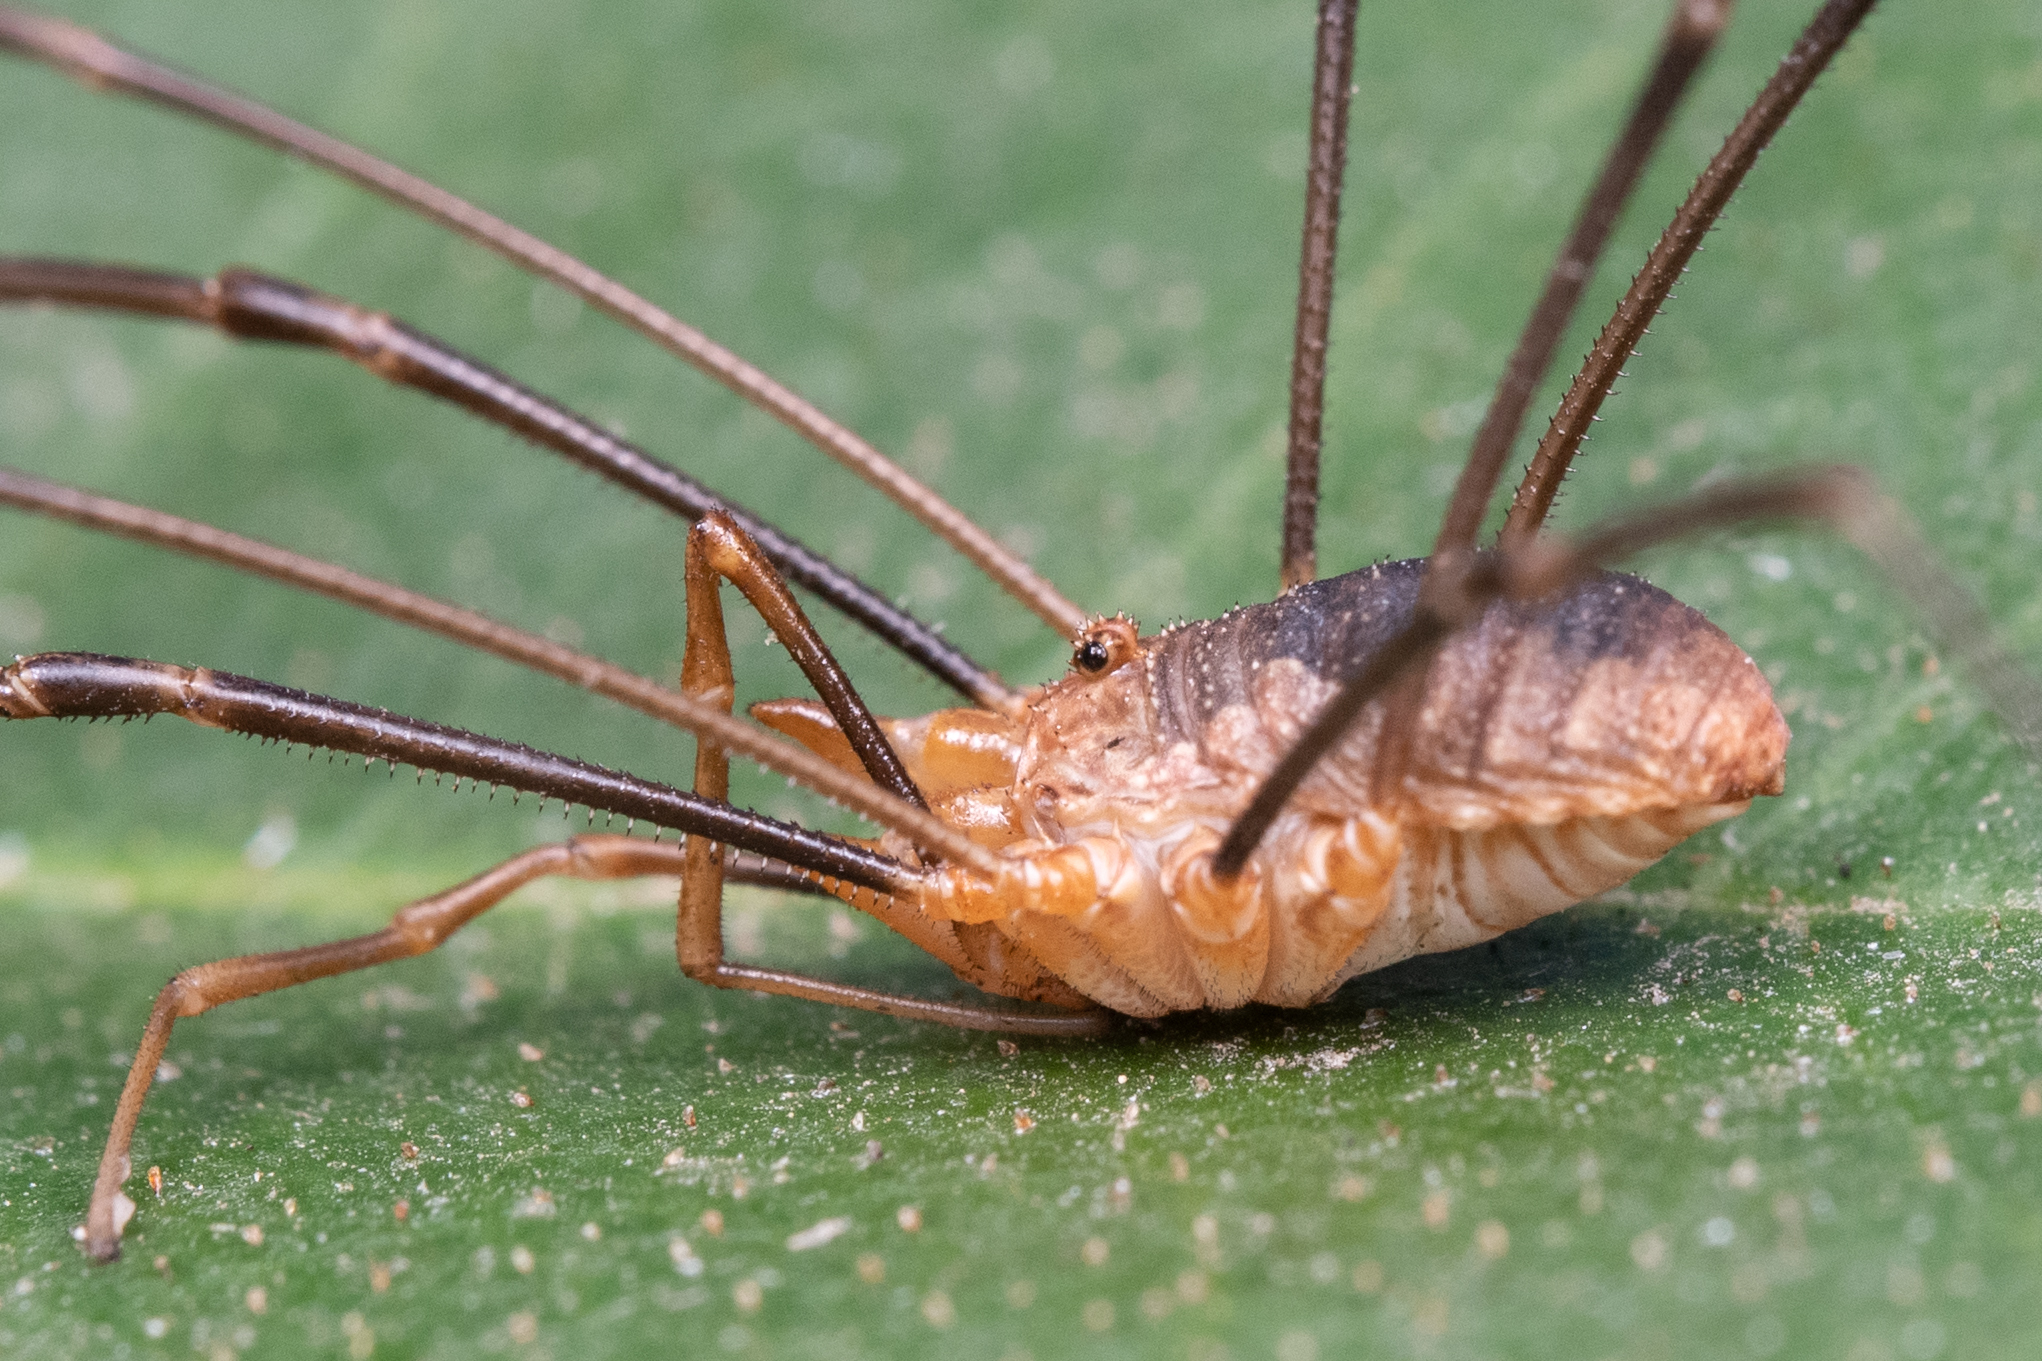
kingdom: Animalia
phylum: Arthropoda
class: Arachnida
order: Opiliones
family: Phalangiidae
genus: Phalangium
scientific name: Phalangium opilio
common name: Daddy longleg
